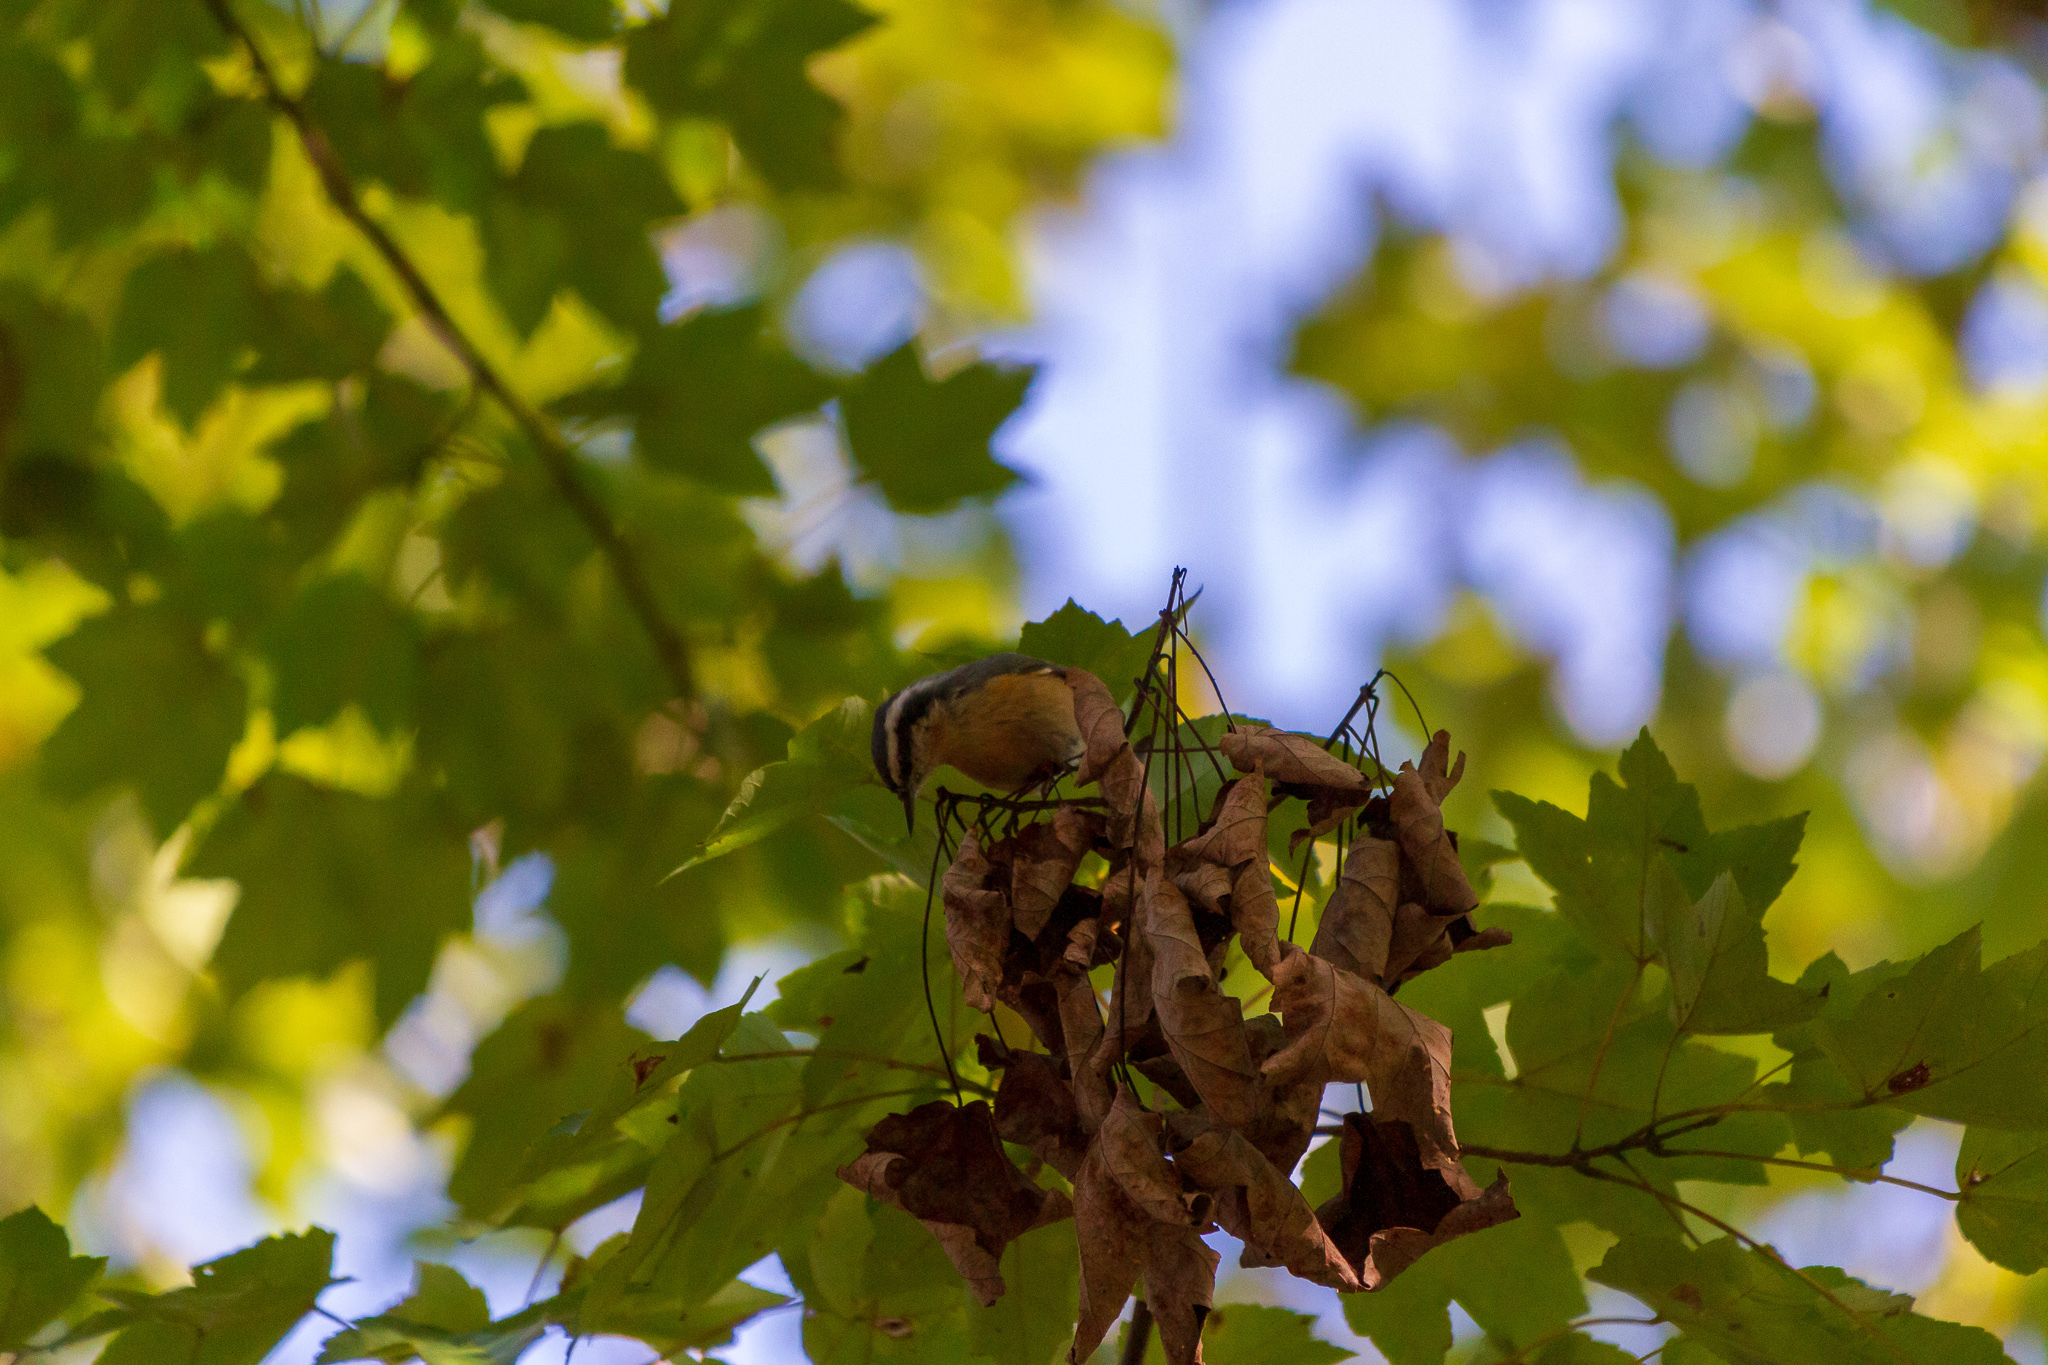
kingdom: Animalia
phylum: Chordata
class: Aves
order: Passeriformes
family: Sittidae
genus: Sitta
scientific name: Sitta canadensis
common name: Red-breasted nuthatch
